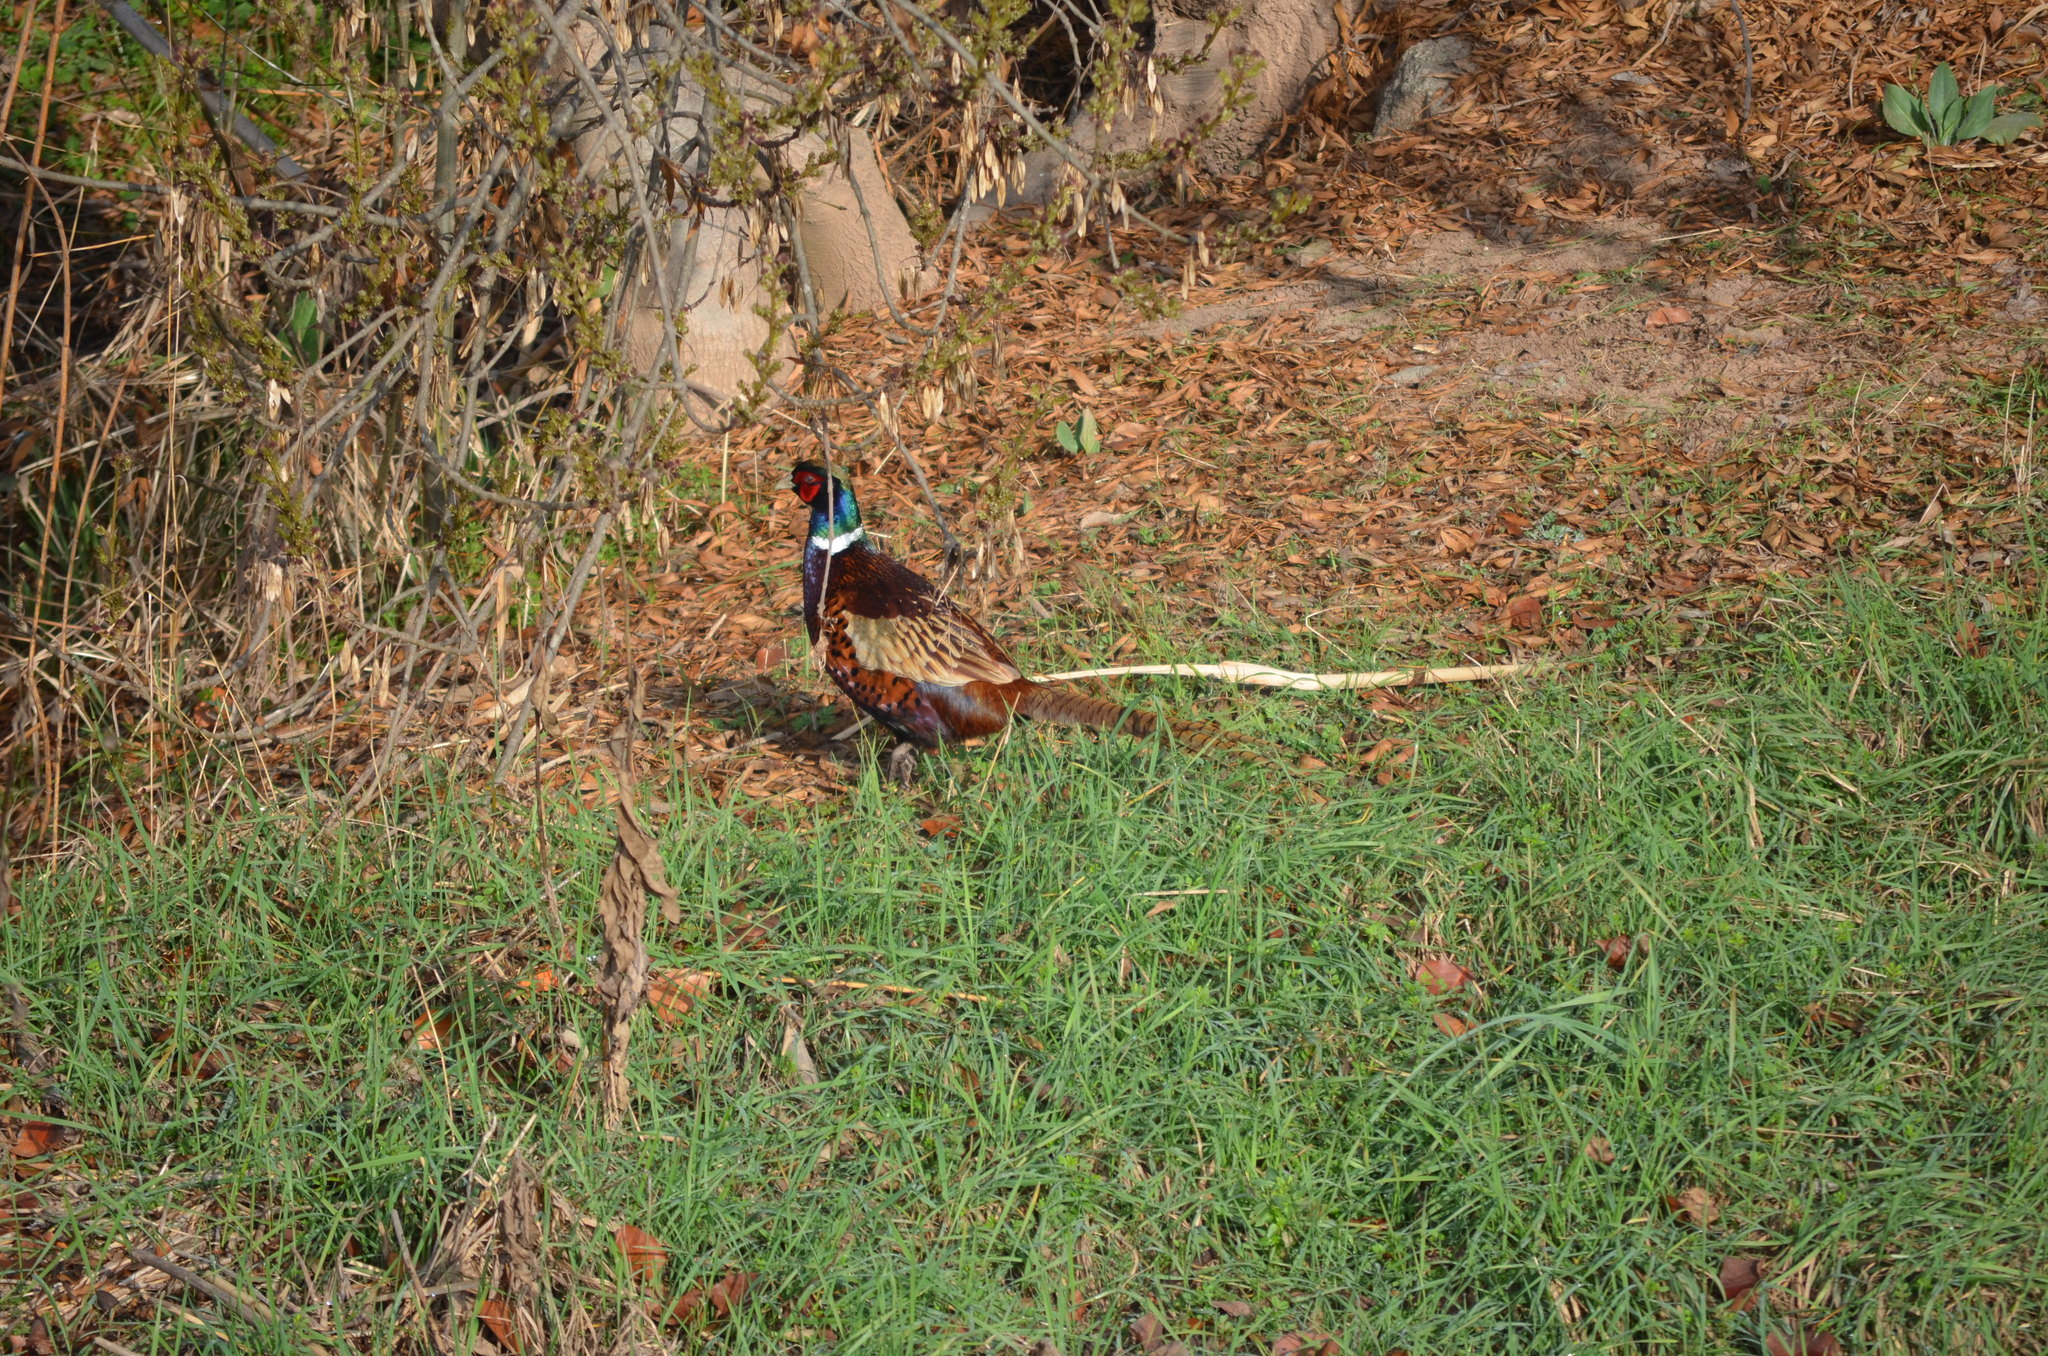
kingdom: Animalia
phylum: Chordata
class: Aves
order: Galliformes
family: Phasianidae
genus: Phasianus
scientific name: Phasianus colchicus
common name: Common pheasant
